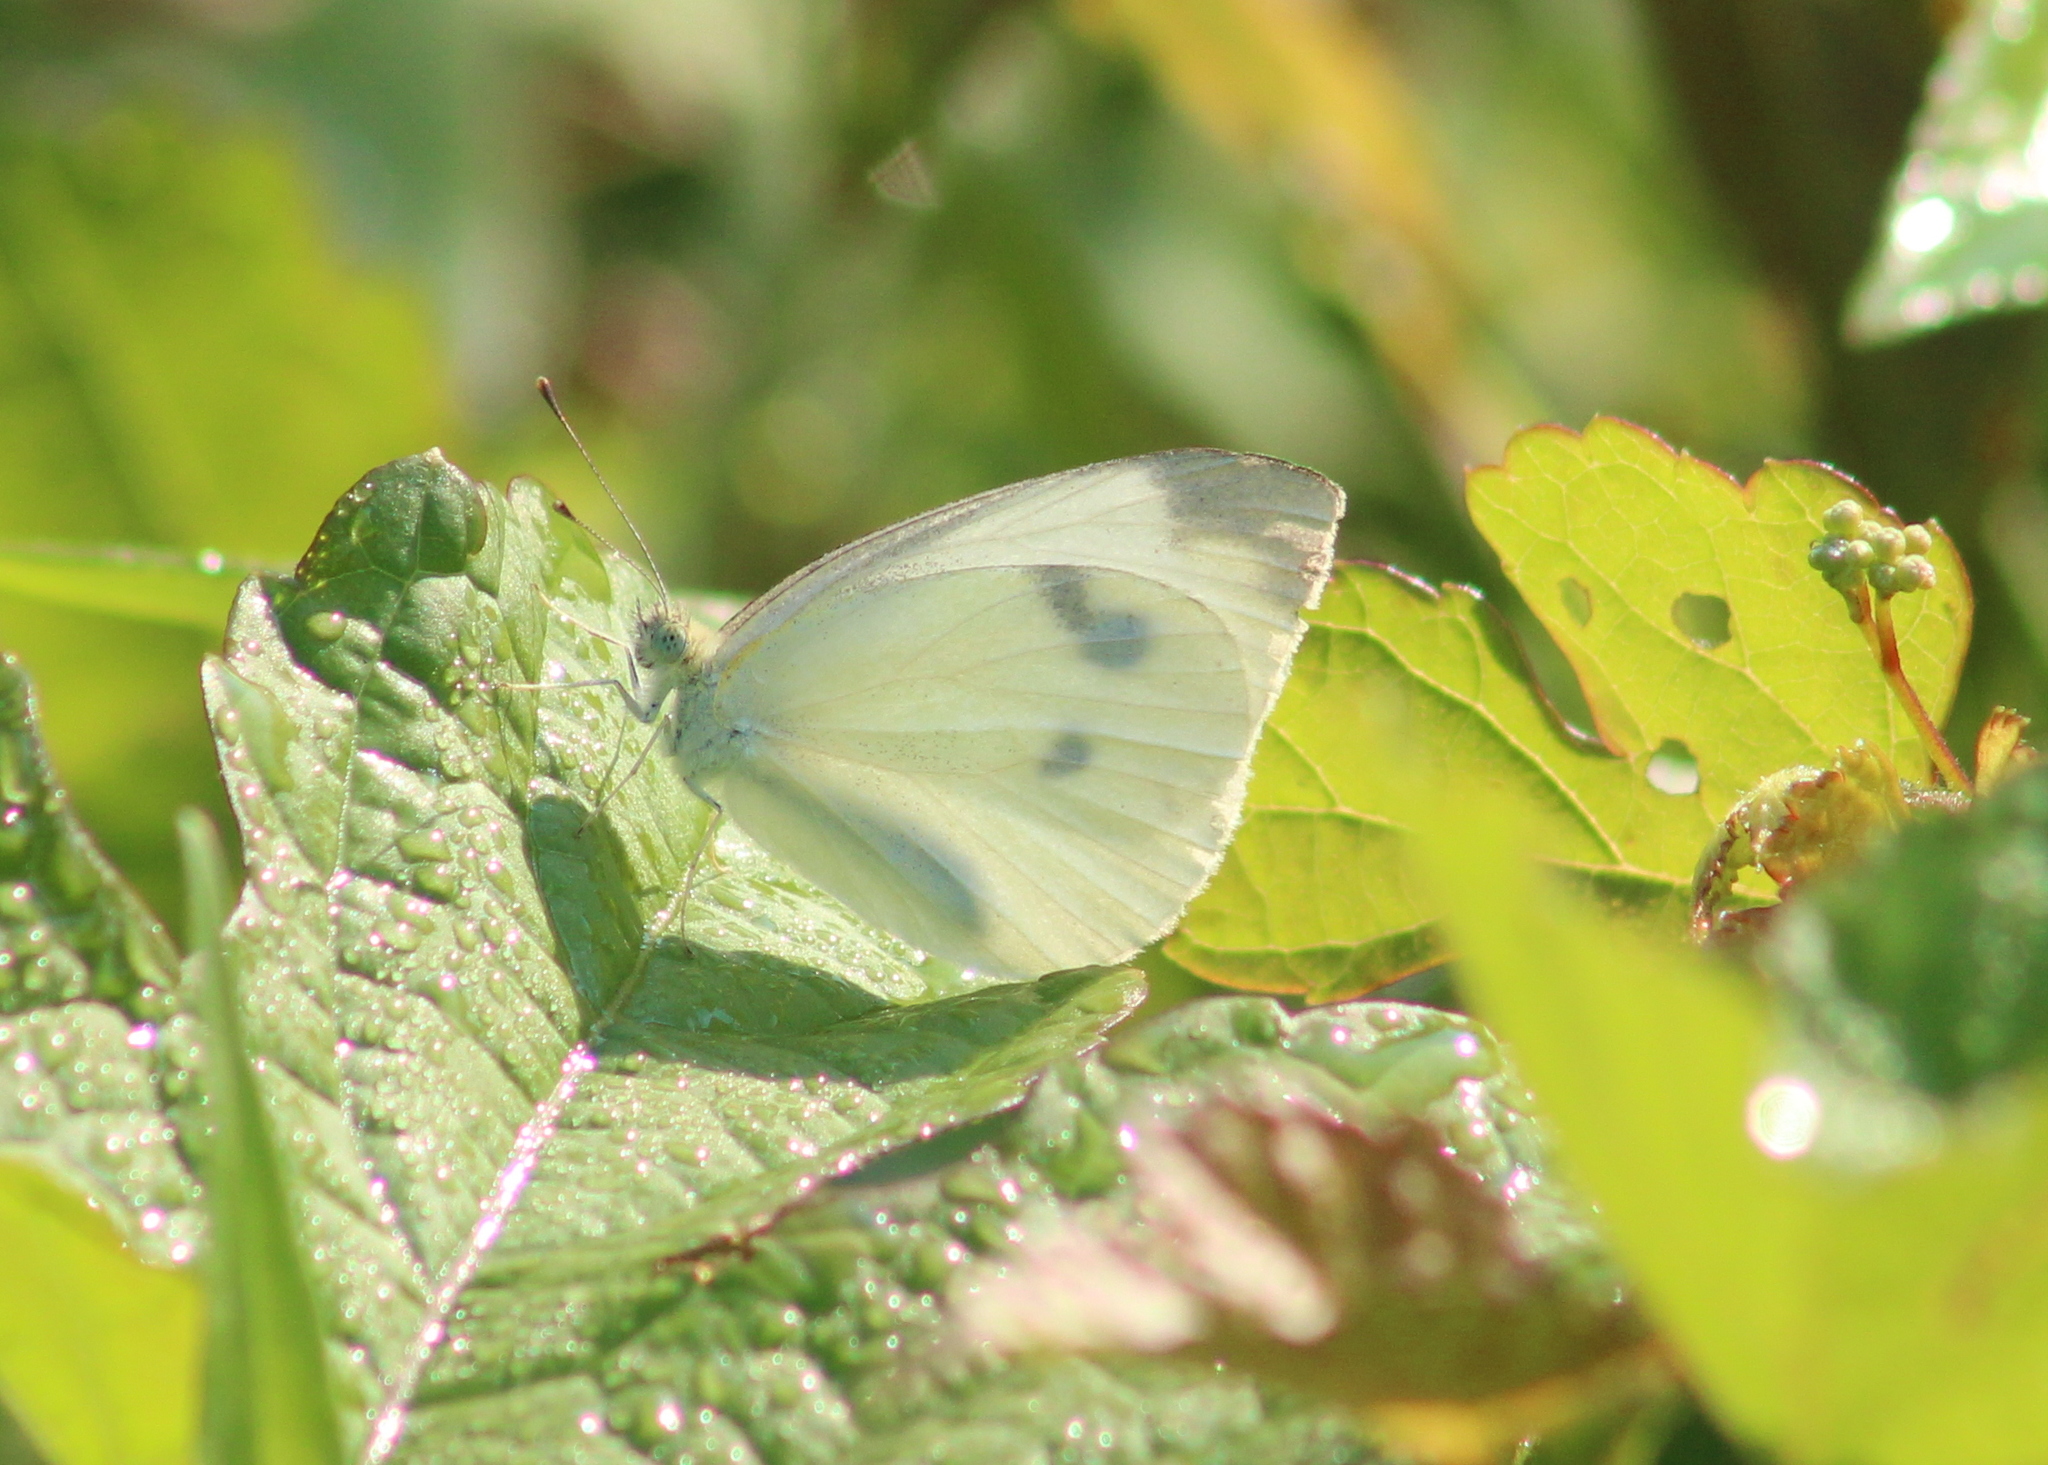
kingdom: Animalia
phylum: Arthropoda
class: Insecta
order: Lepidoptera
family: Pieridae
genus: Pieris
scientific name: Pieris rapae
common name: Small white
